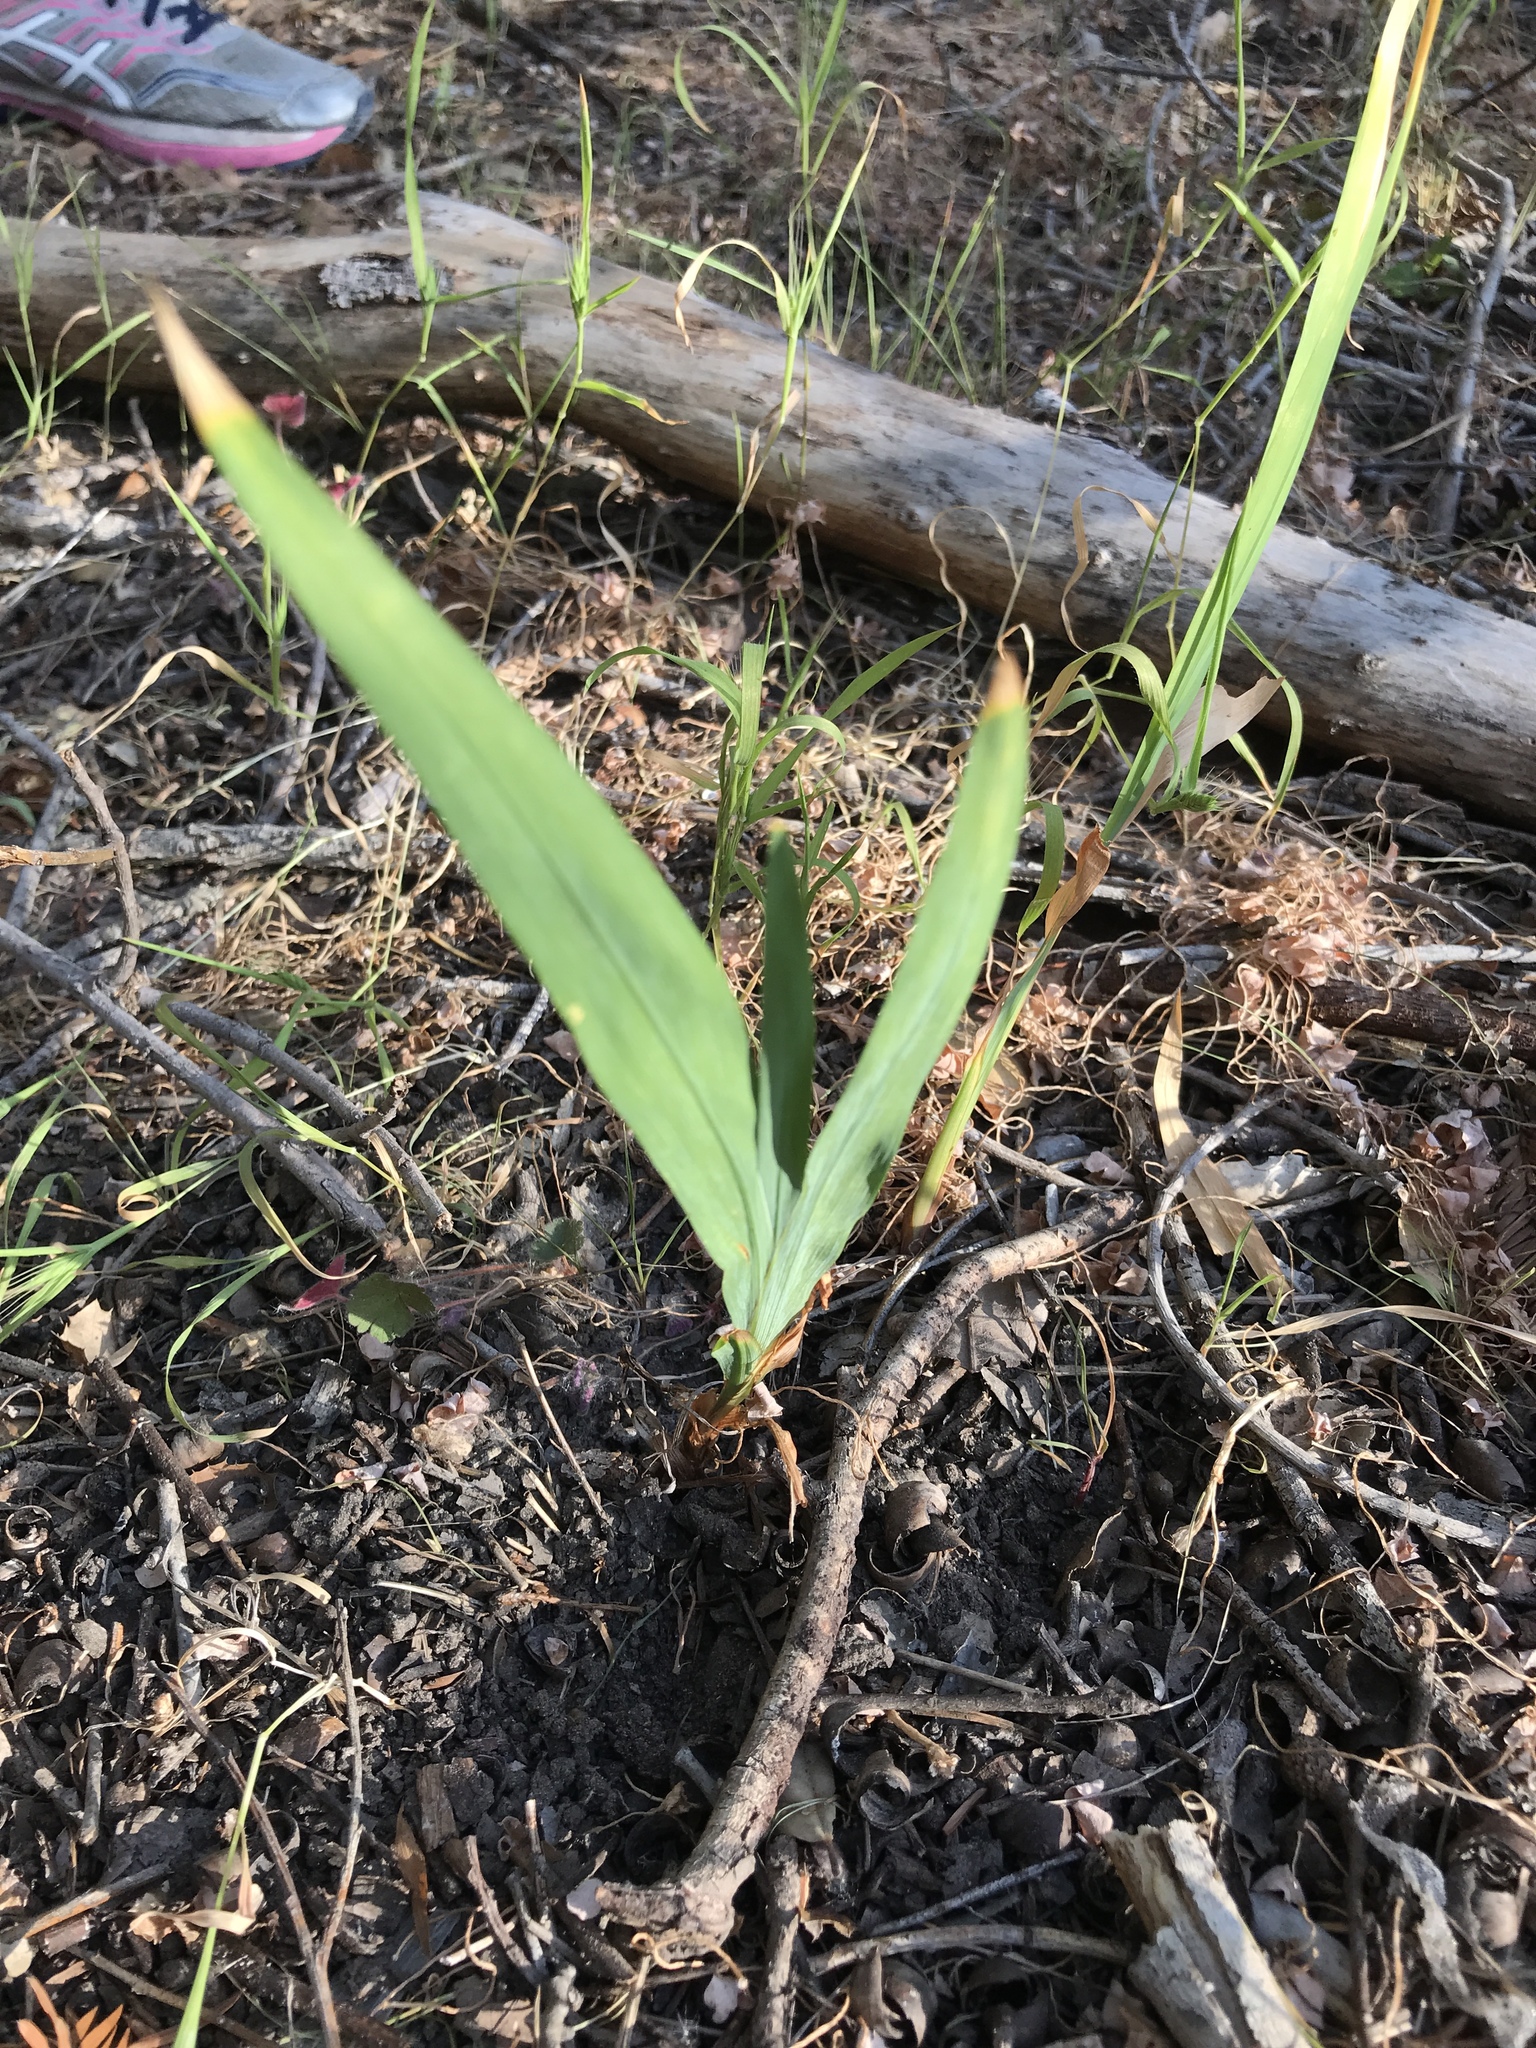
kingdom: Plantae
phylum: Tracheophyta
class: Liliopsida
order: Asparagales
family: Iridaceae
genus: Chasmanthe
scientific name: Chasmanthe floribunda
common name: African cornflag
